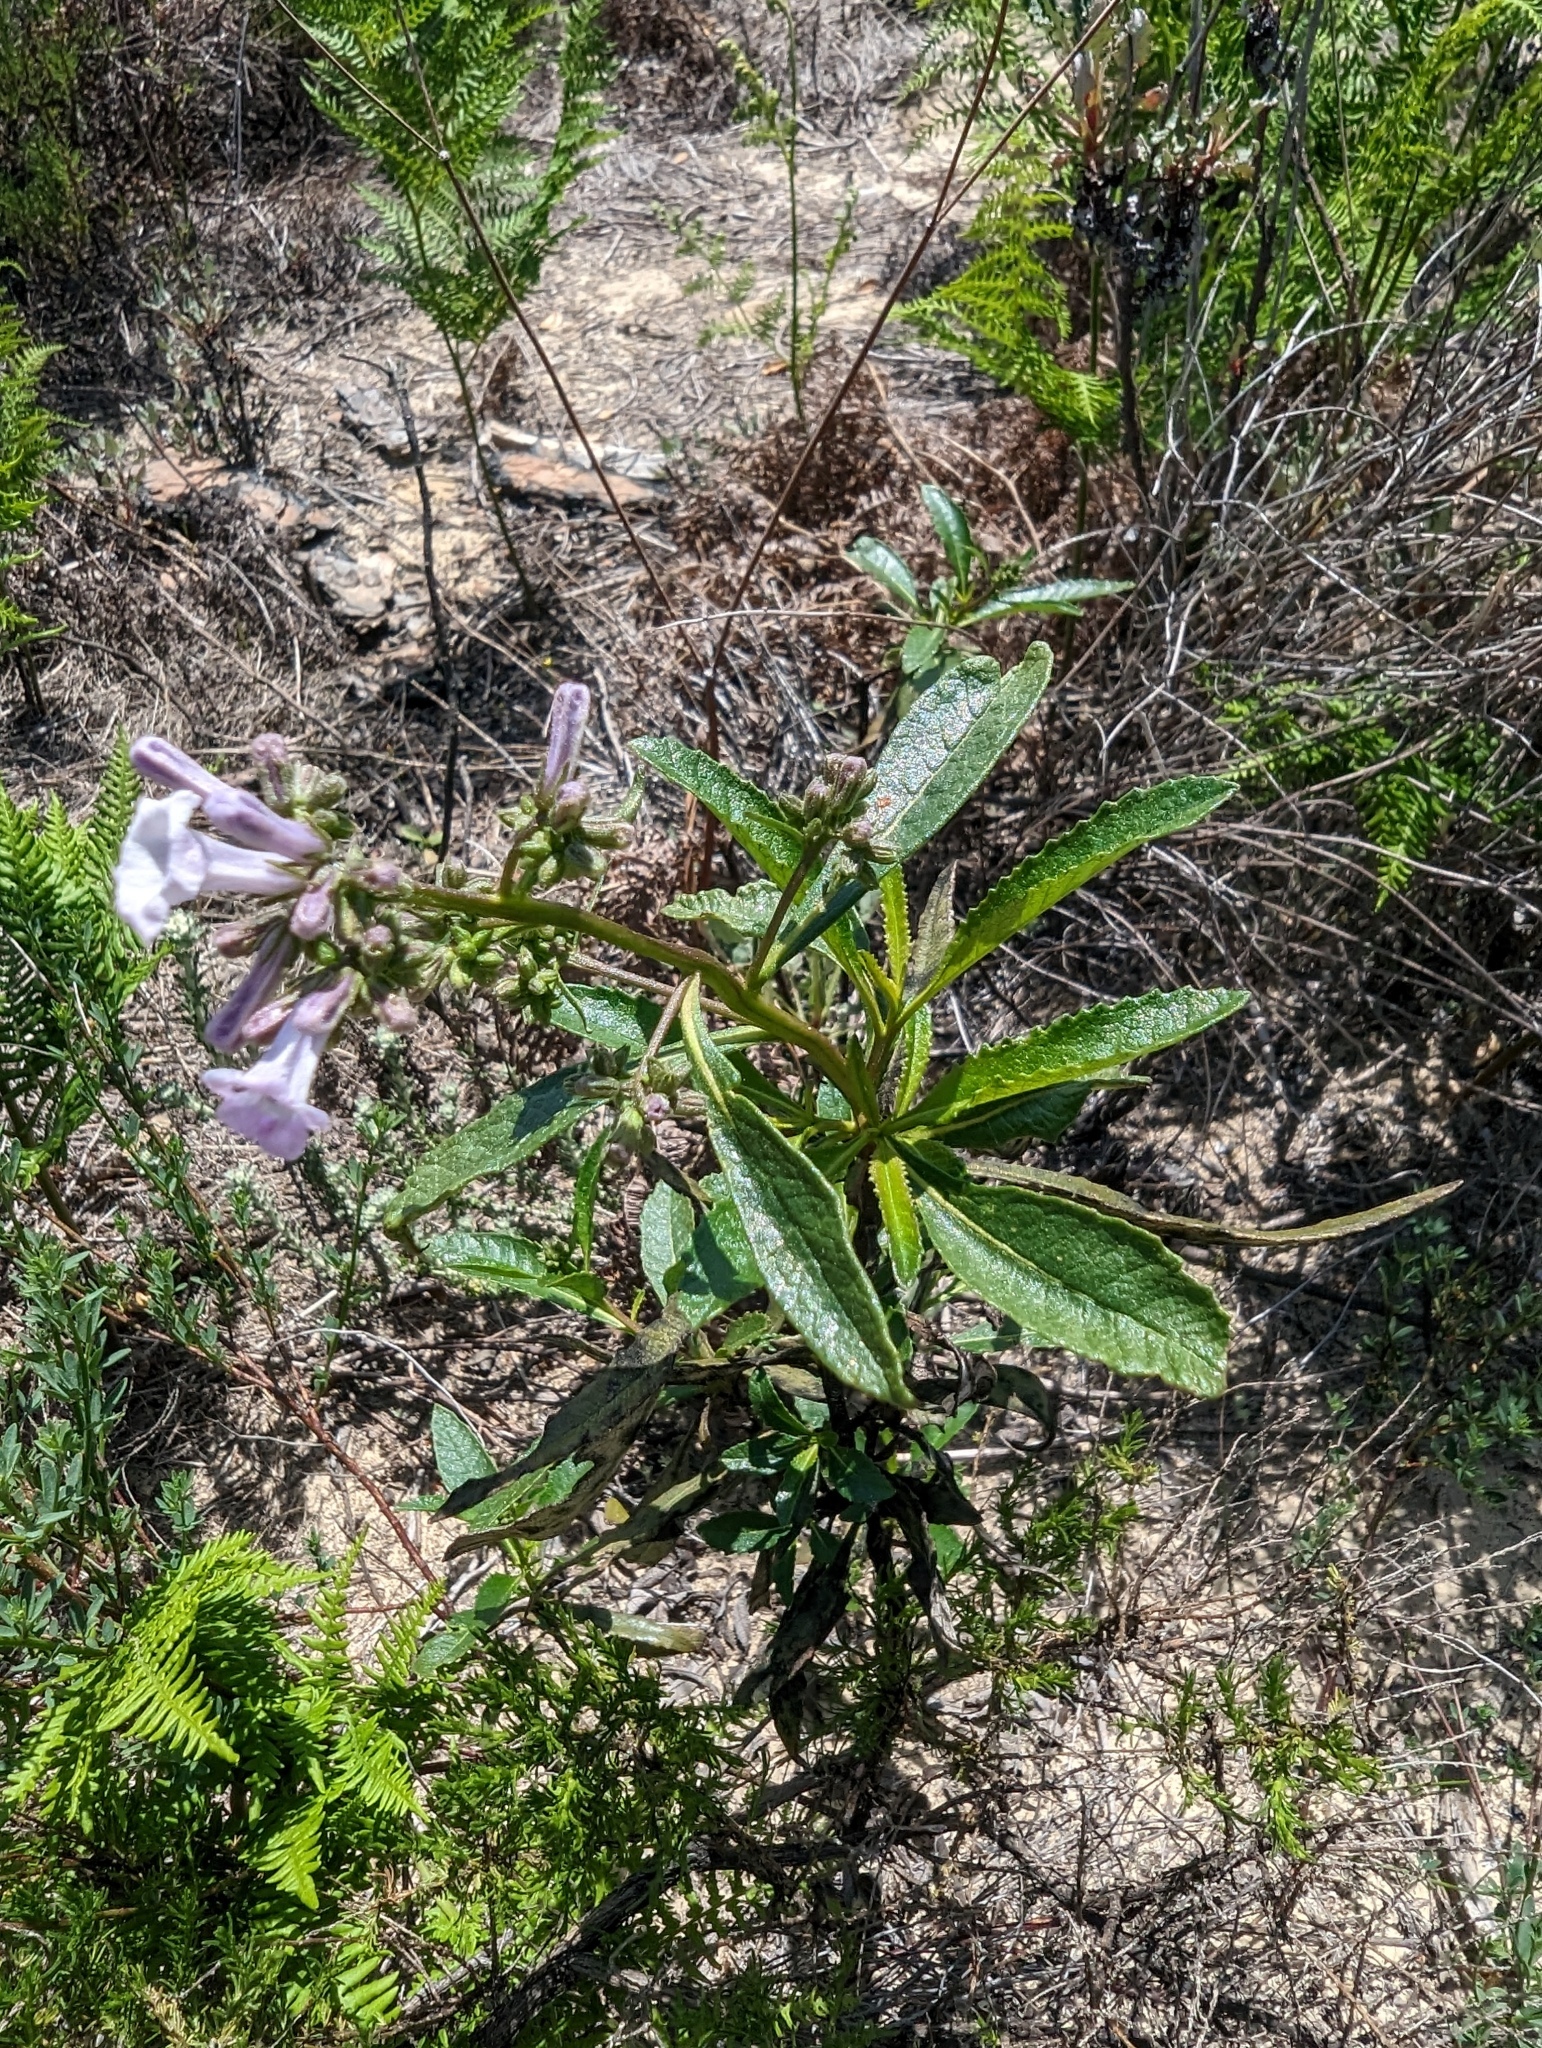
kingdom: Plantae
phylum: Tracheophyta
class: Magnoliopsida
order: Boraginales
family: Namaceae
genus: Eriodictyon
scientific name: Eriodictyon californicum
